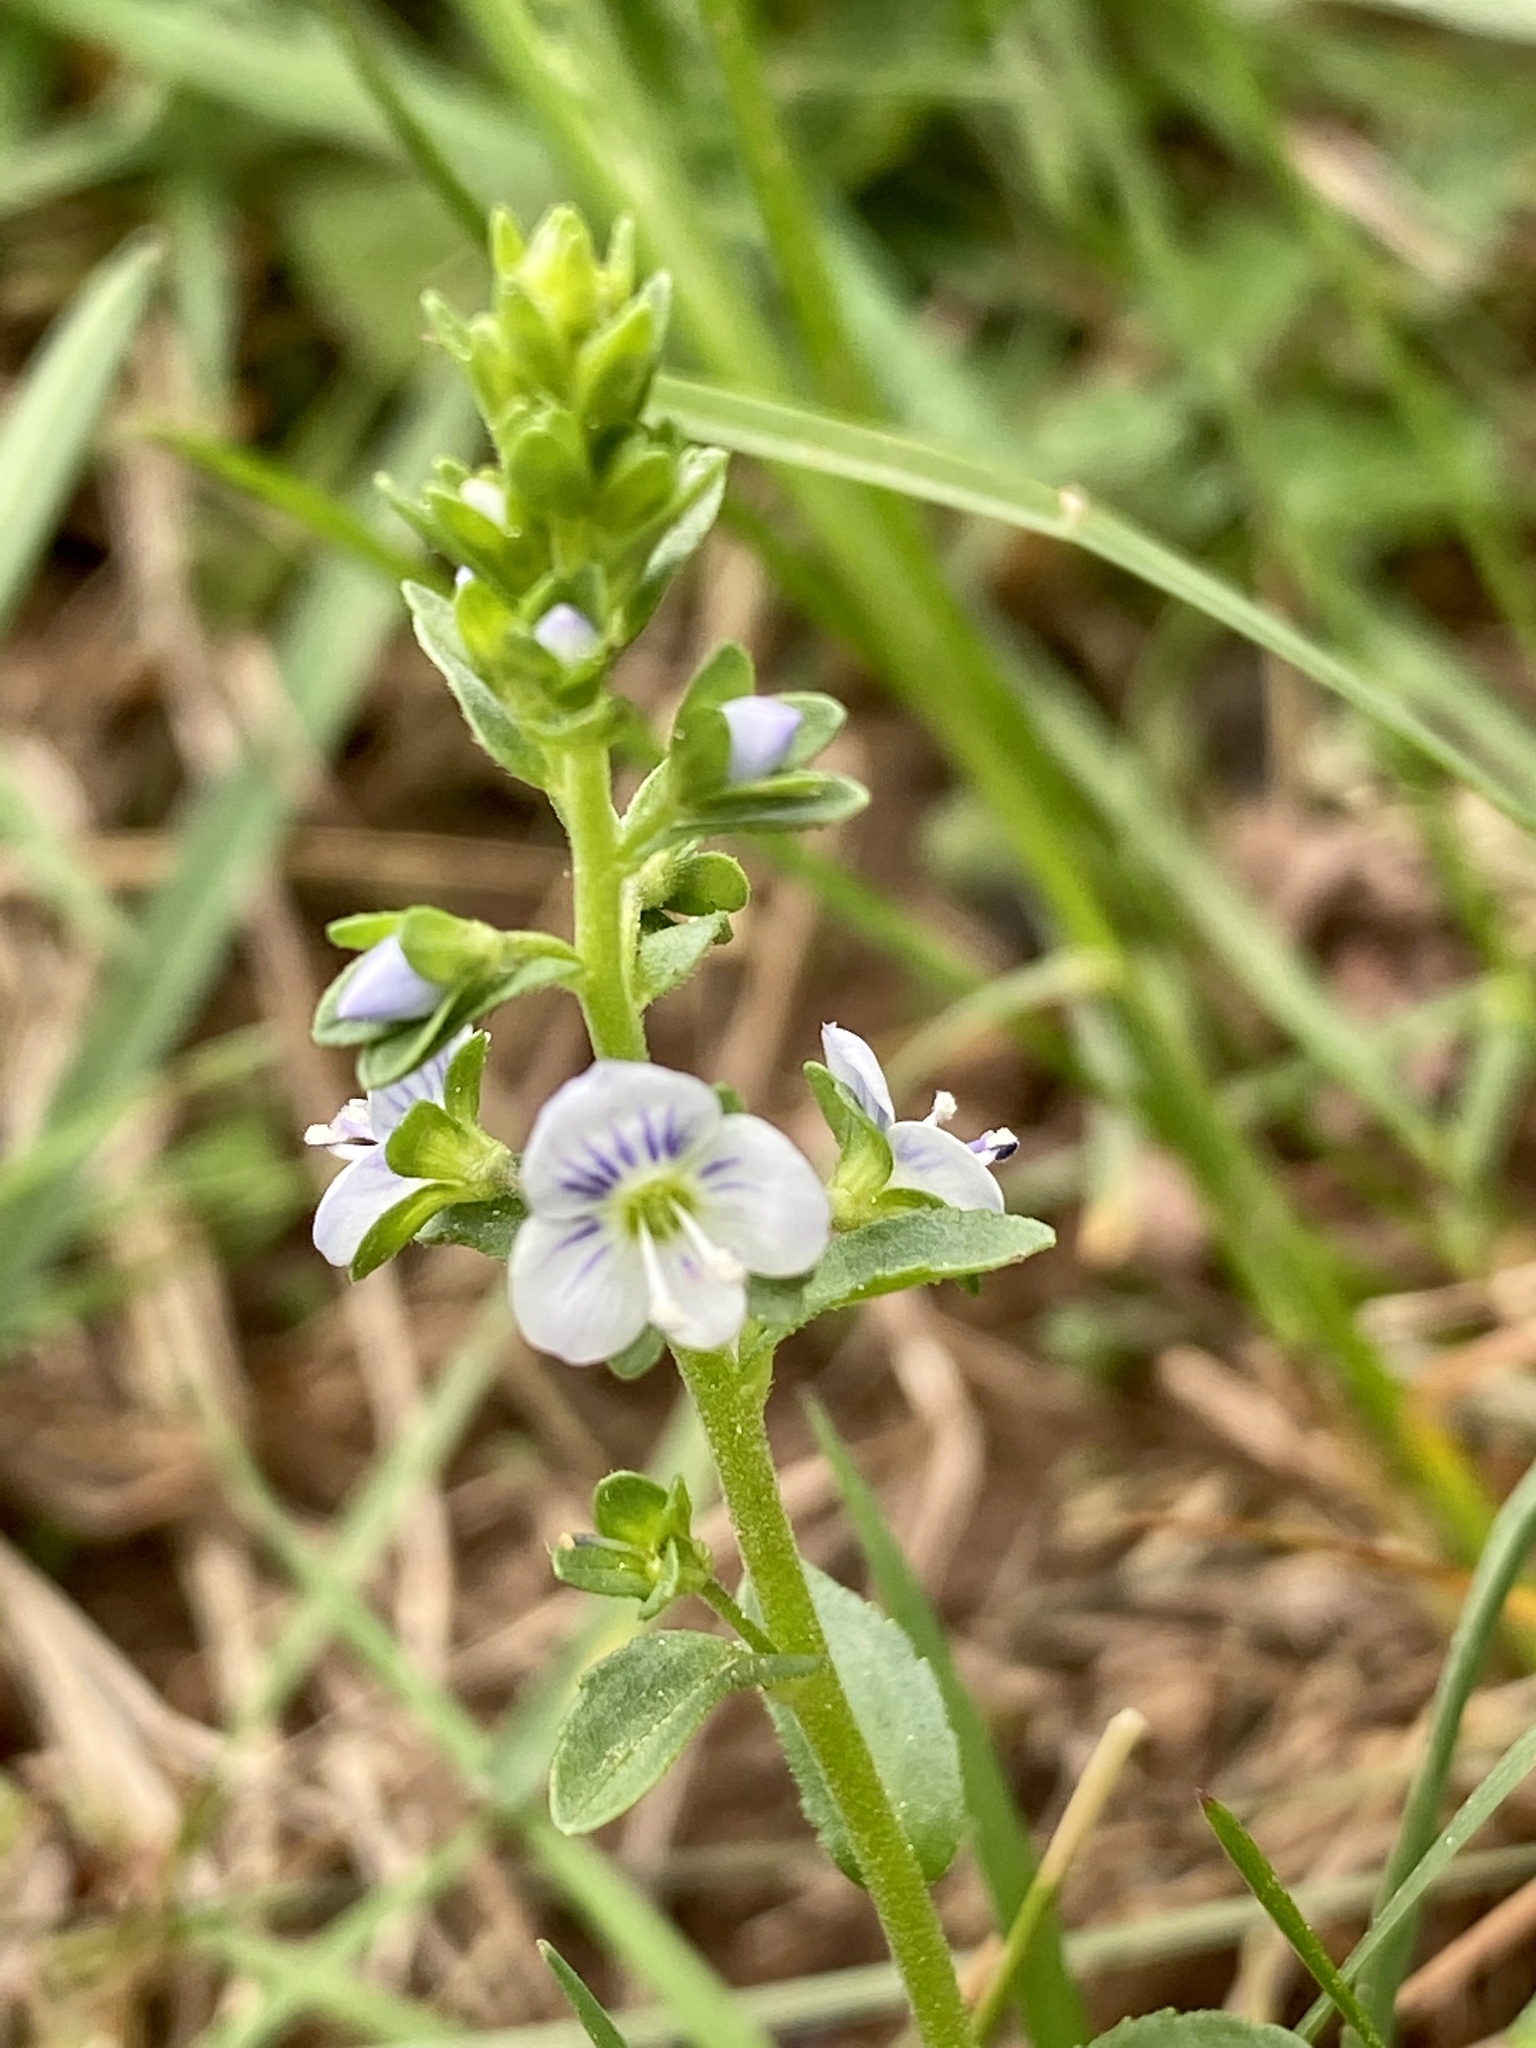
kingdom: Plantae
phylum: Tracheophyta
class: Magnoliopsida
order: Lamiales
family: Plantaginaceae
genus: Veronica
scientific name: Veronica serpyllifolia
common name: Thyme-leaved speedwell
